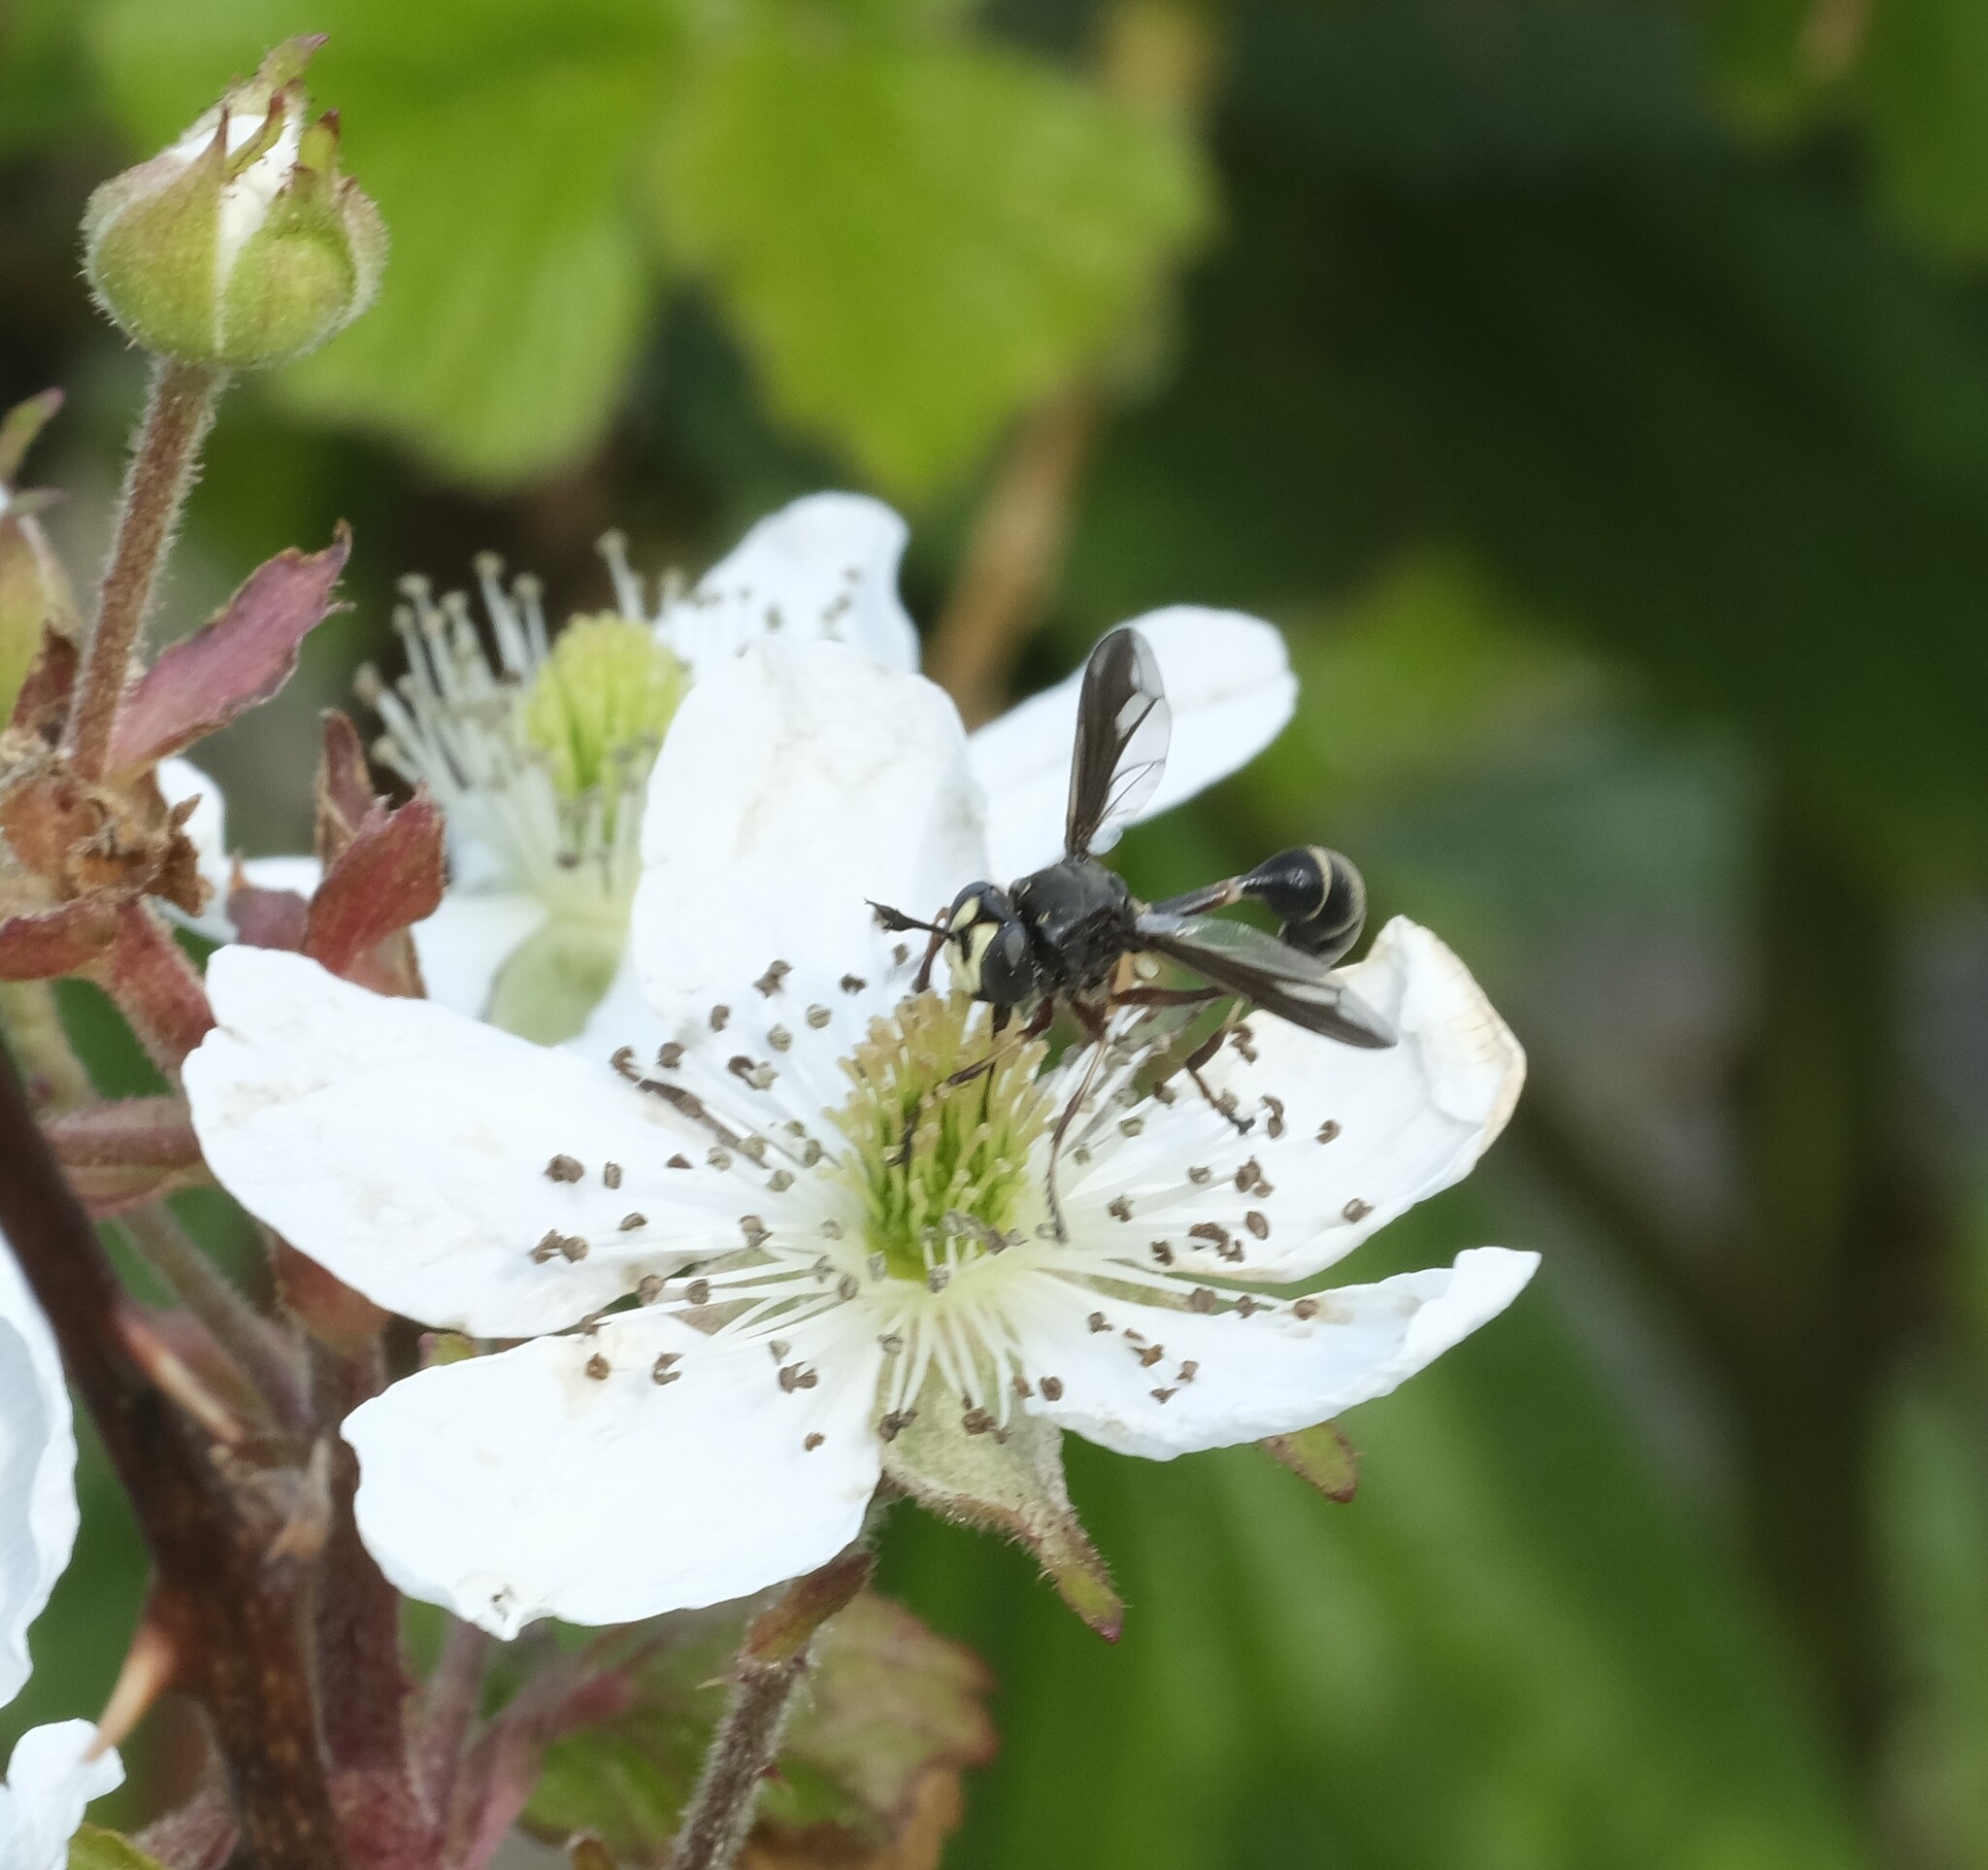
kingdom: Animalia
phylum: Arthropoda
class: Insecta
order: Diptera
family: Conopidae
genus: Physocephala
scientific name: Physocephala furcillata
